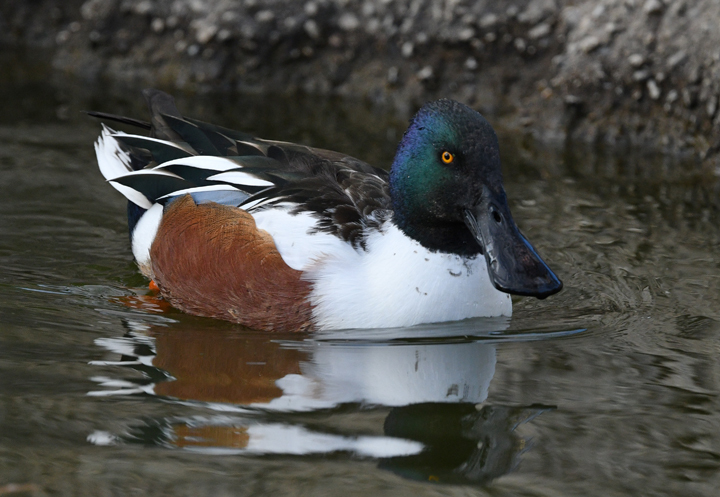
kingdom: Animalia
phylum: Chordata
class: Aves
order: Anseriformes
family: Anatidae
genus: Spatula
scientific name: Spatula clypeata
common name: Northern shoveler
